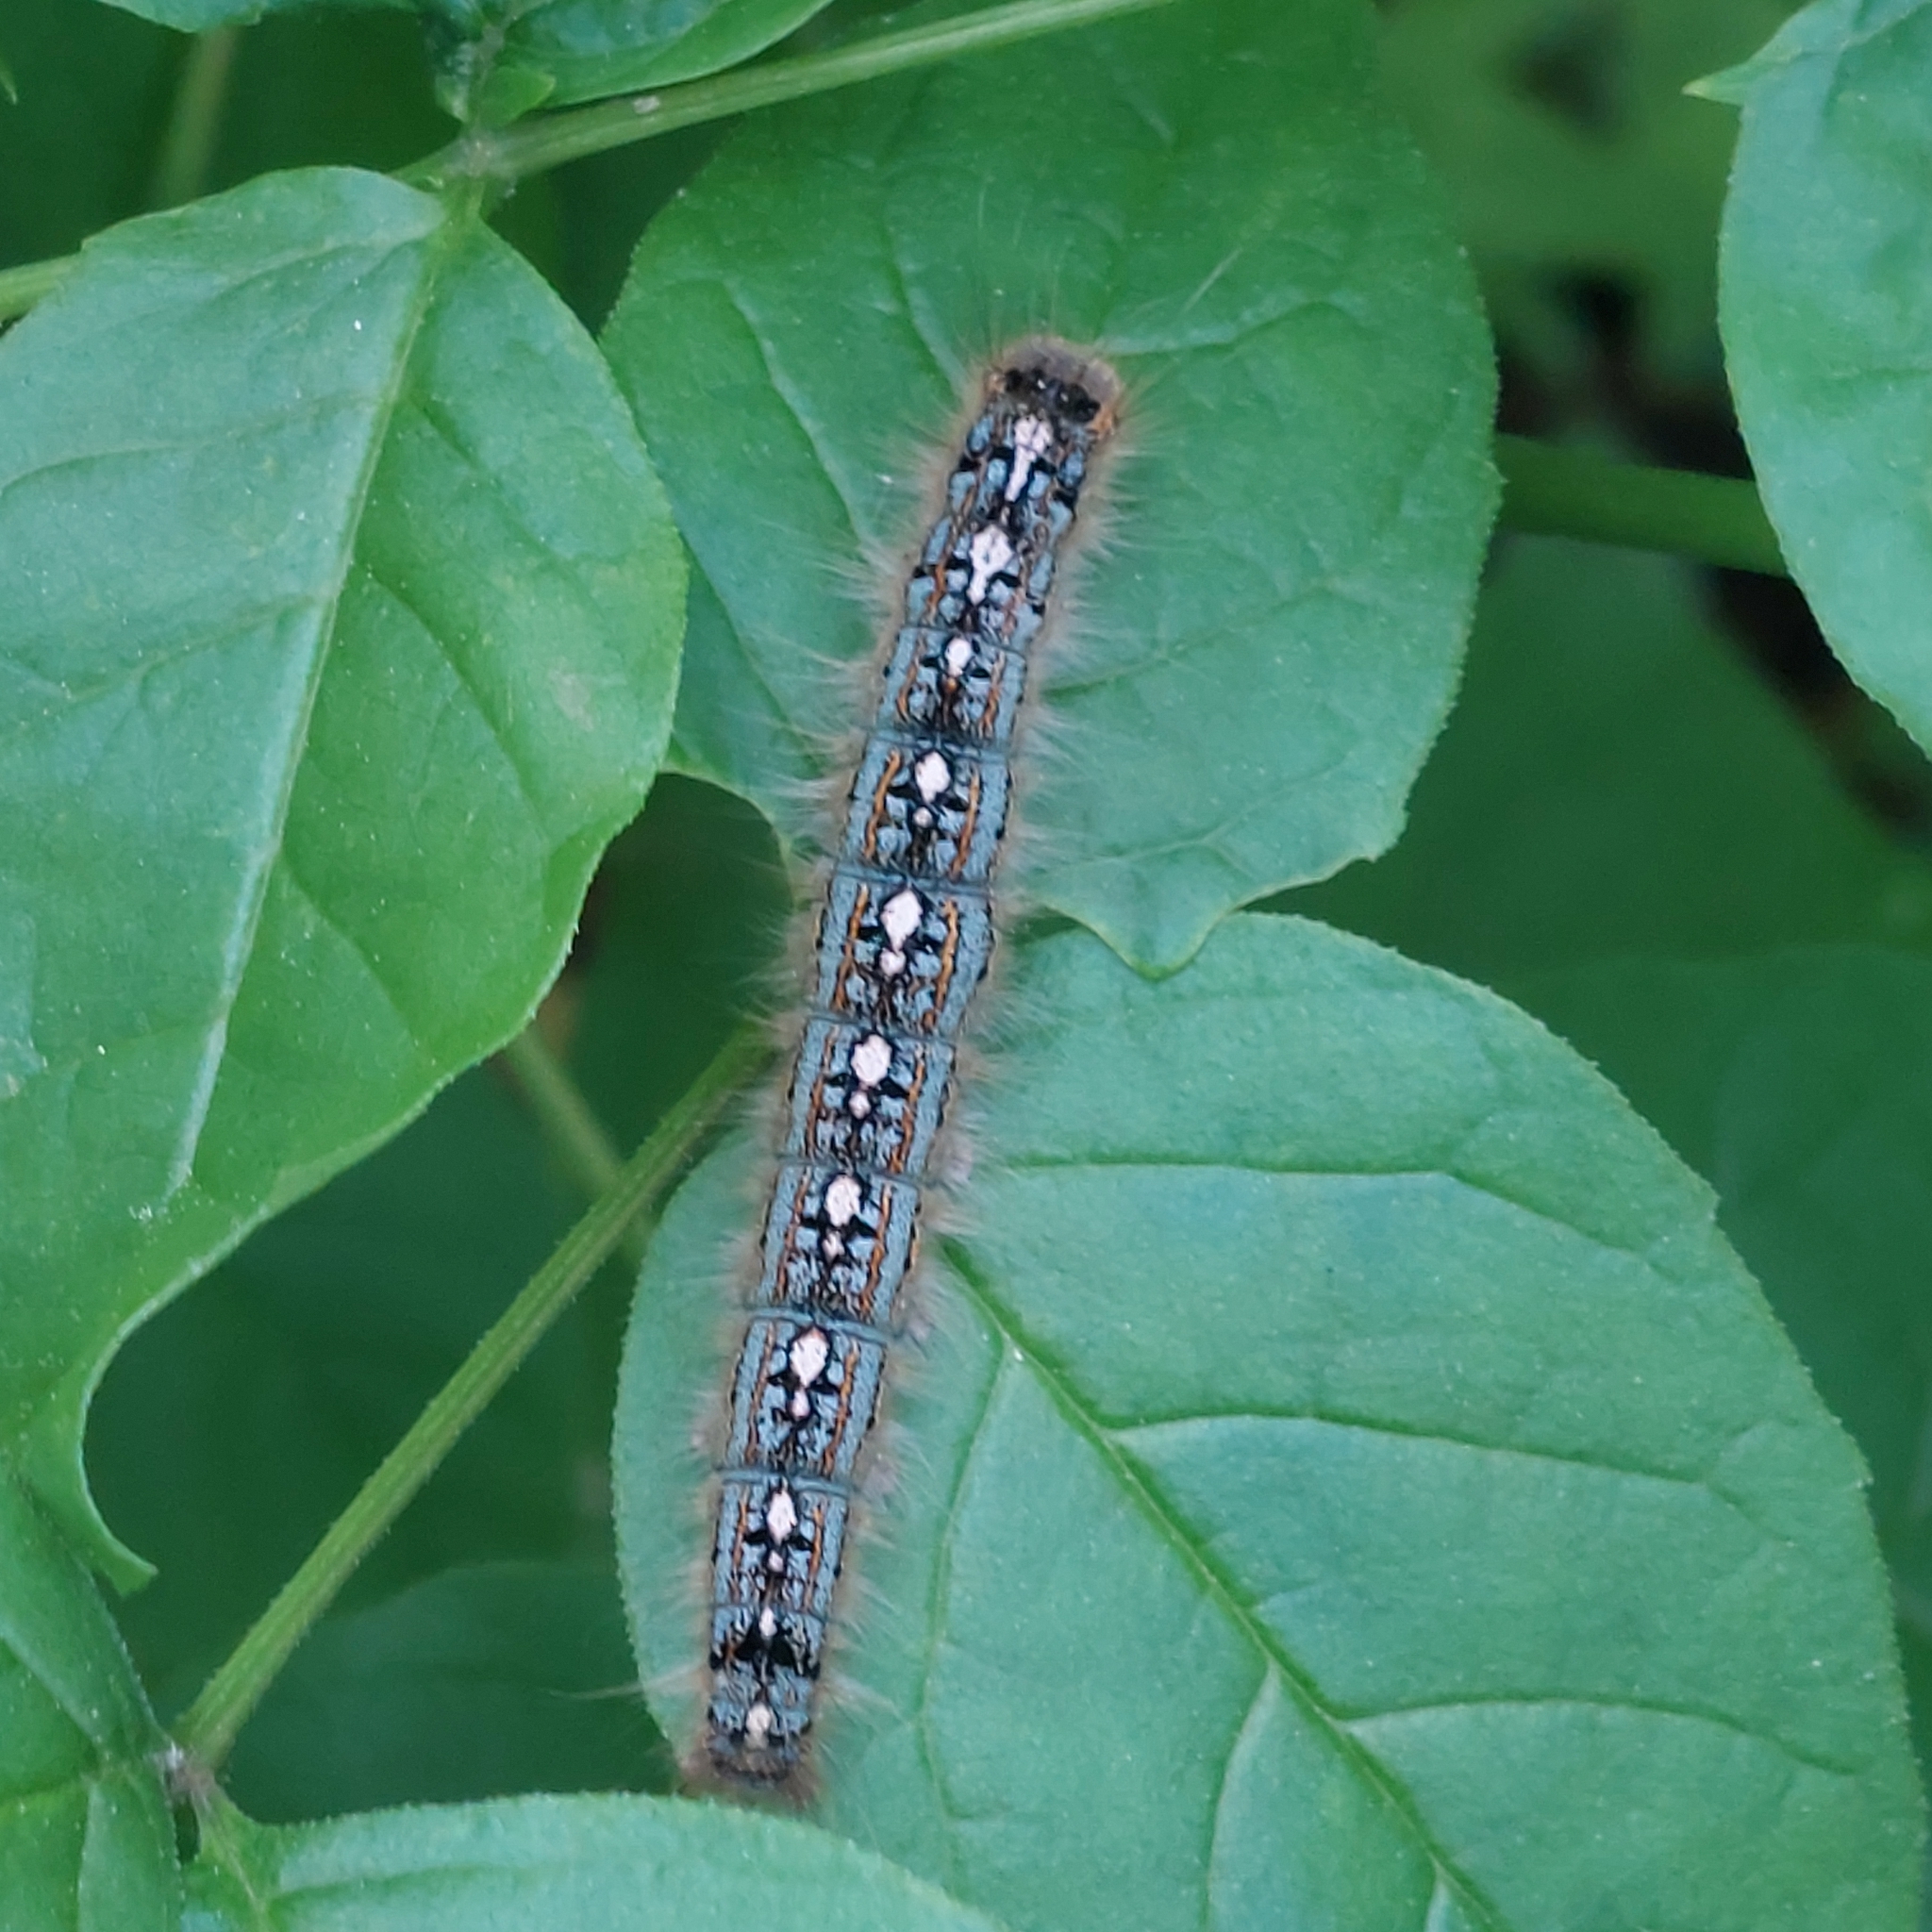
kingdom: Animalia
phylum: Arthropoda
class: Insecta
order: Lepidoptera
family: Lasiocampidae
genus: Malacosoma
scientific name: Malacosoma disstria
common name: Forest tent caterpillar
